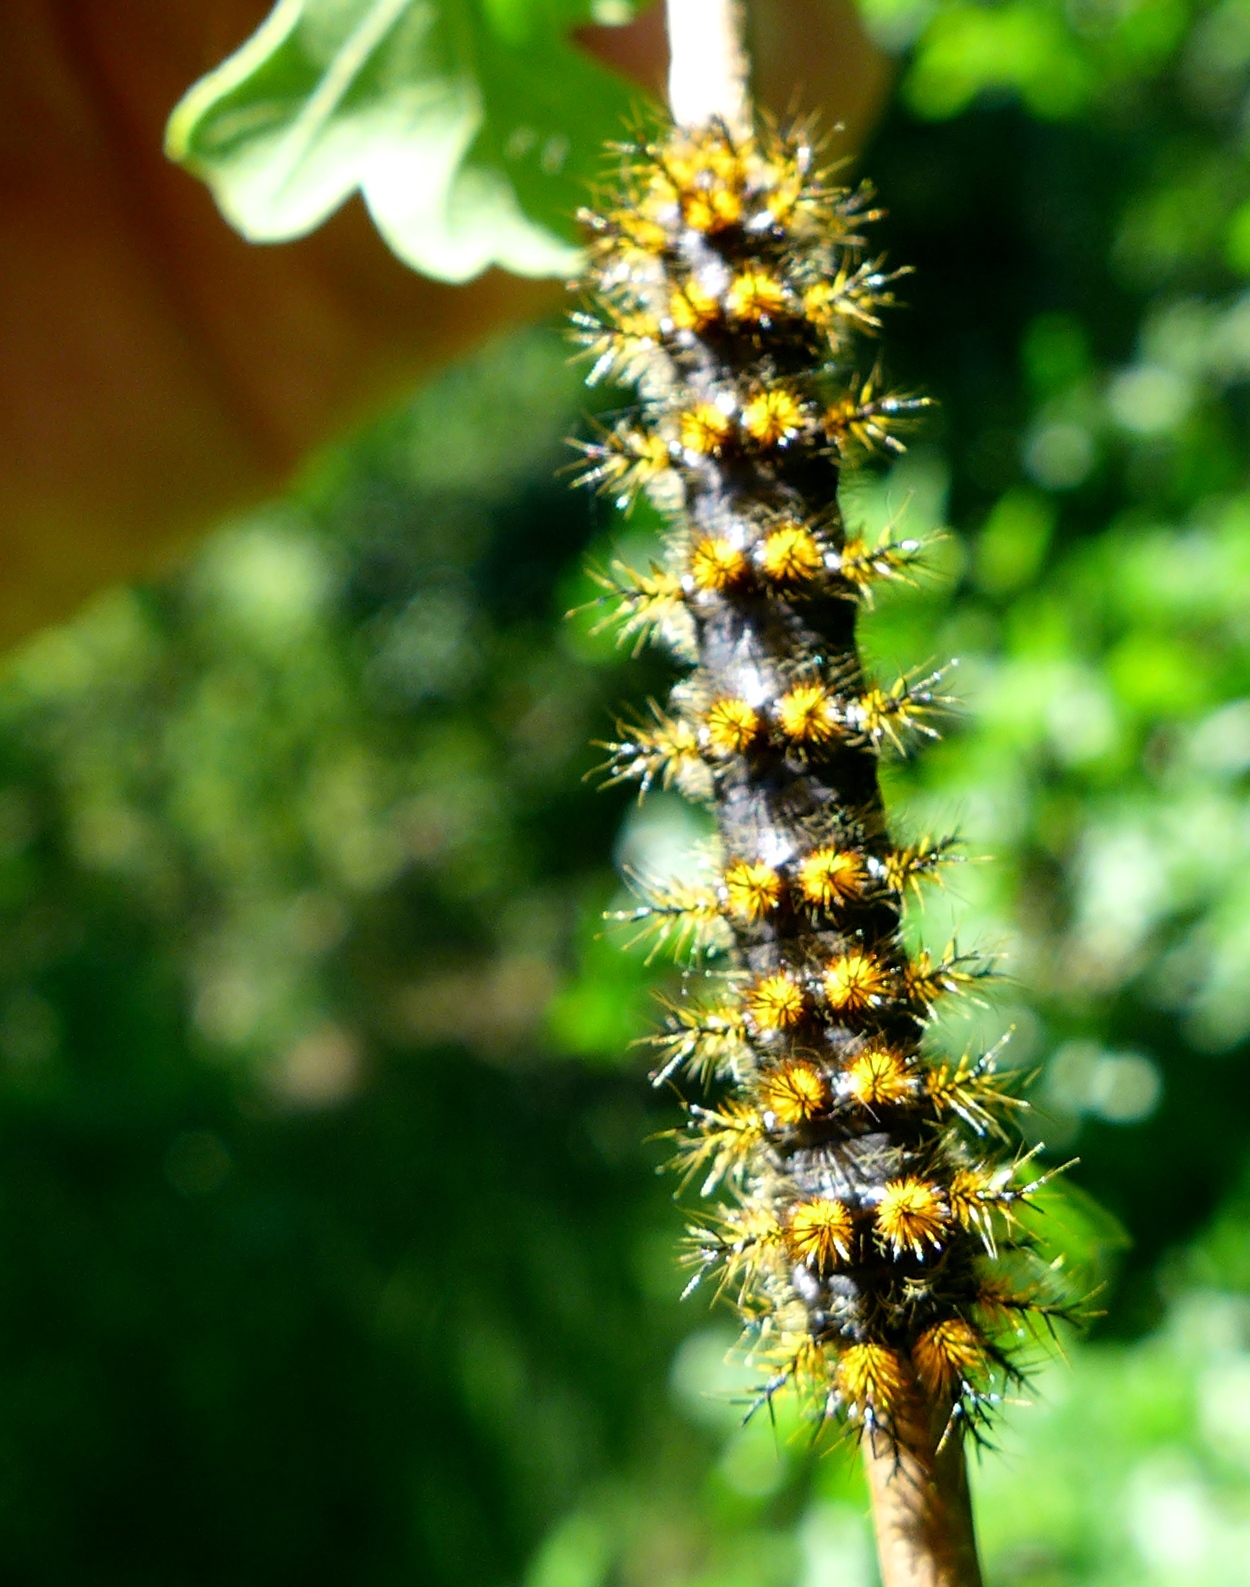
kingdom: Animalia
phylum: Arthropoda
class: Insecta
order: Lepidoptera
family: Saturniidae
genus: Hemileuca
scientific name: Hemileuca eglanterina
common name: Western sheepmoth
